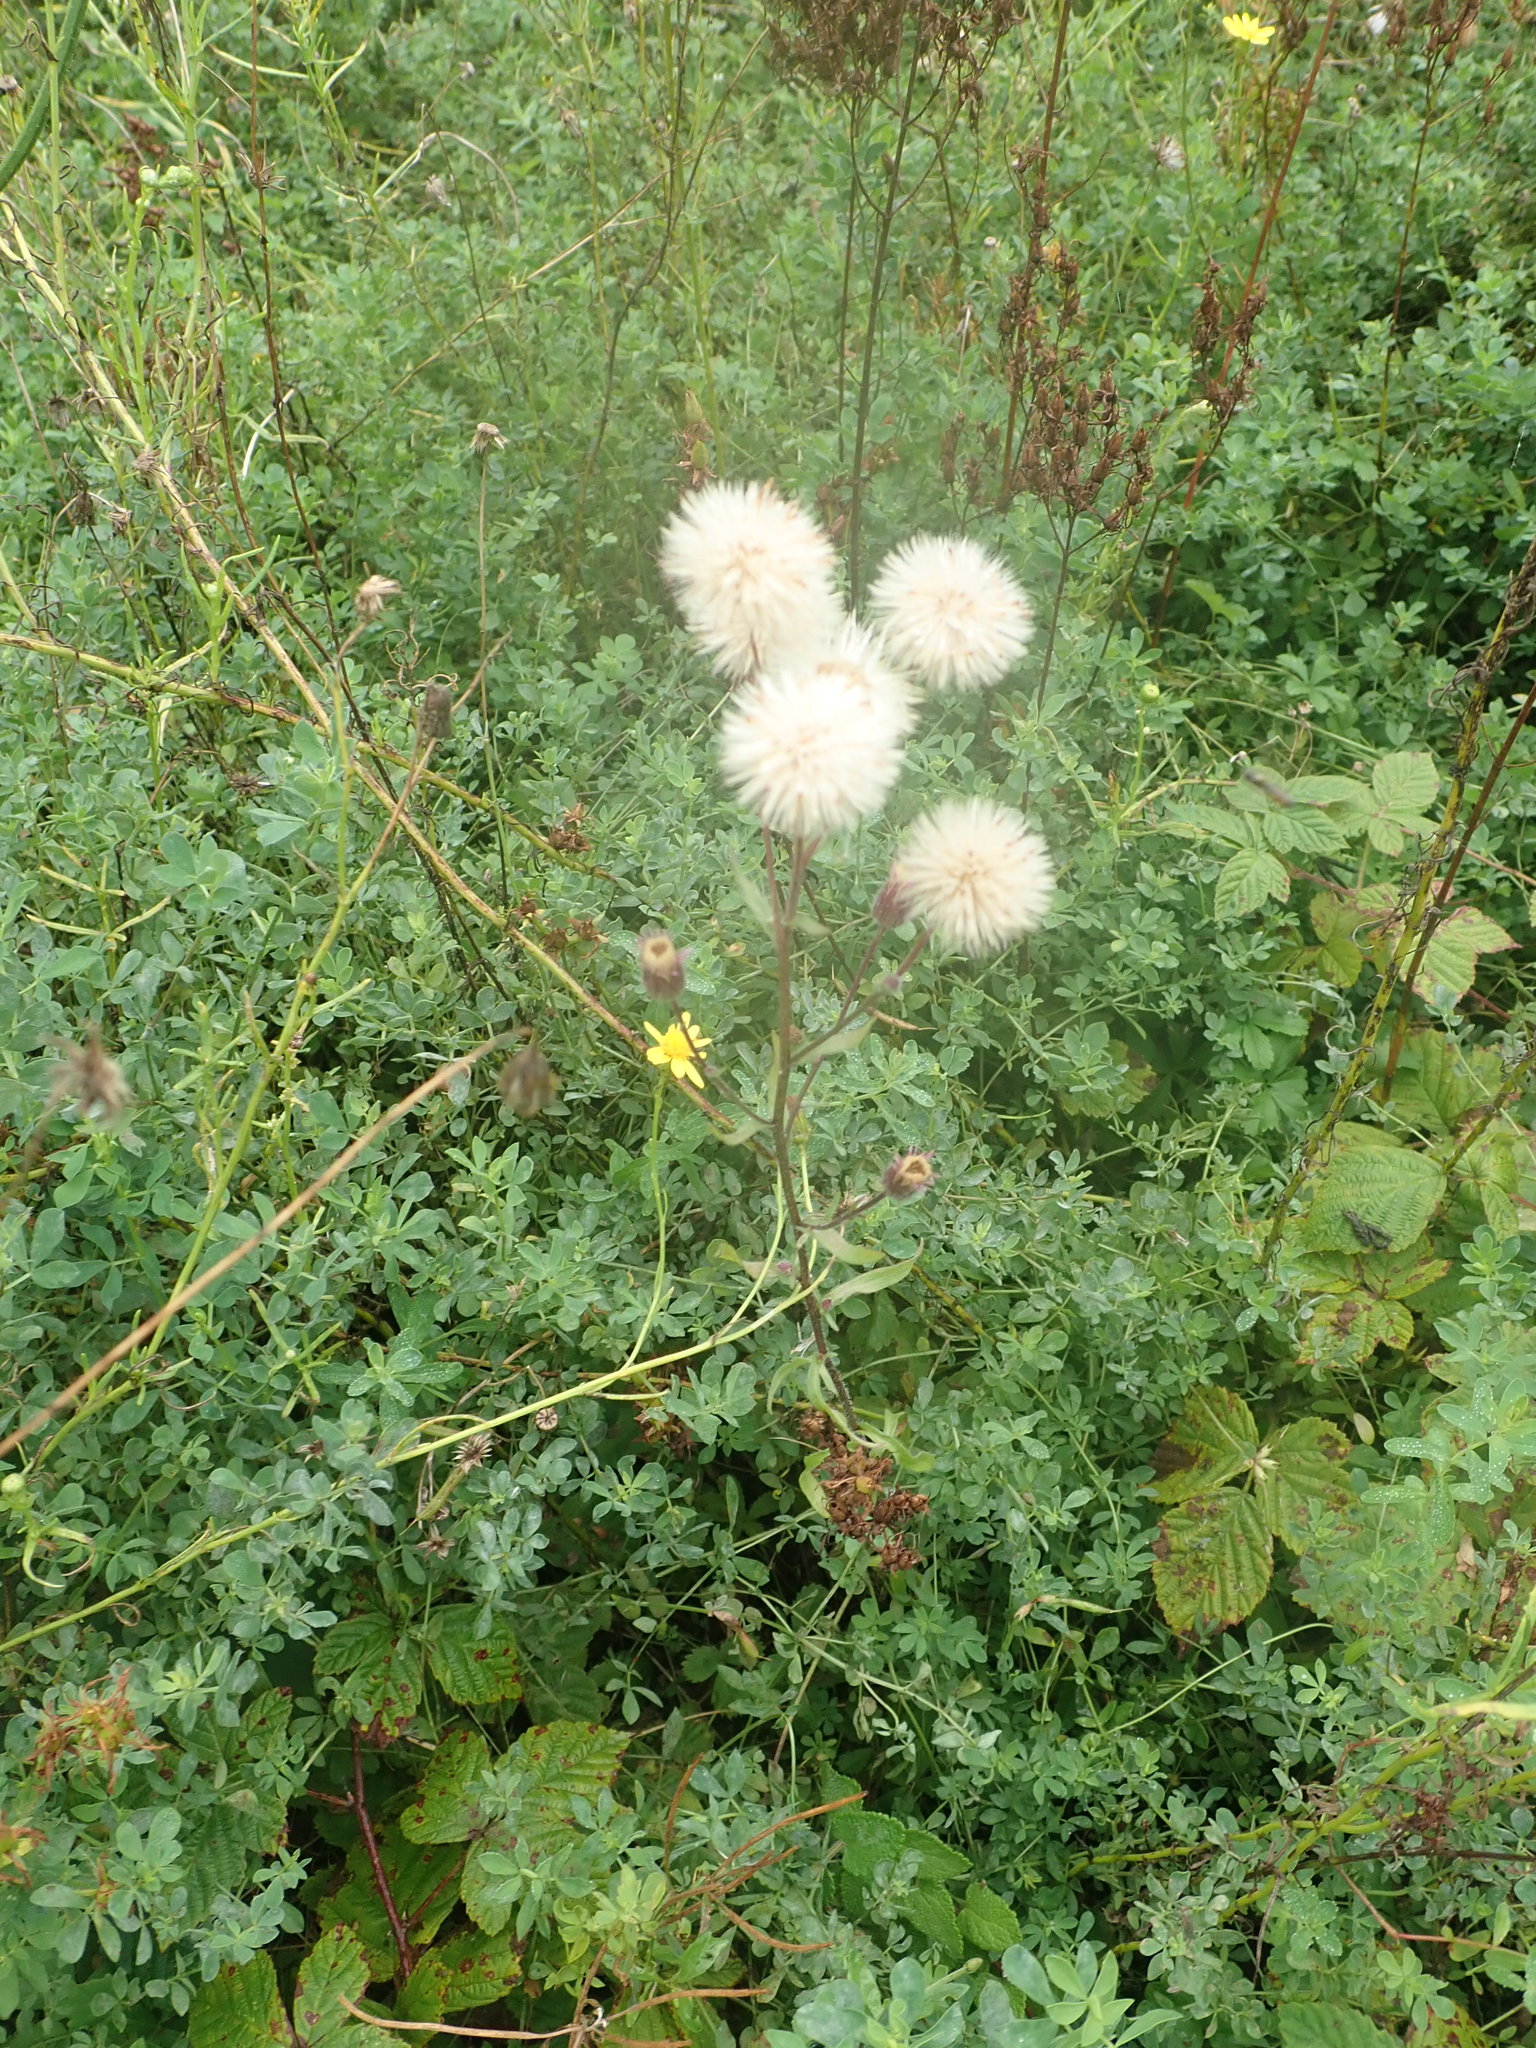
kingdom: Plantae
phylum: Tracheophyta
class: Magnoliopsida
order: Asterales
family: Asteraceae
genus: Erigeron
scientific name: Erigeron acris
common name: Blue fleabane
